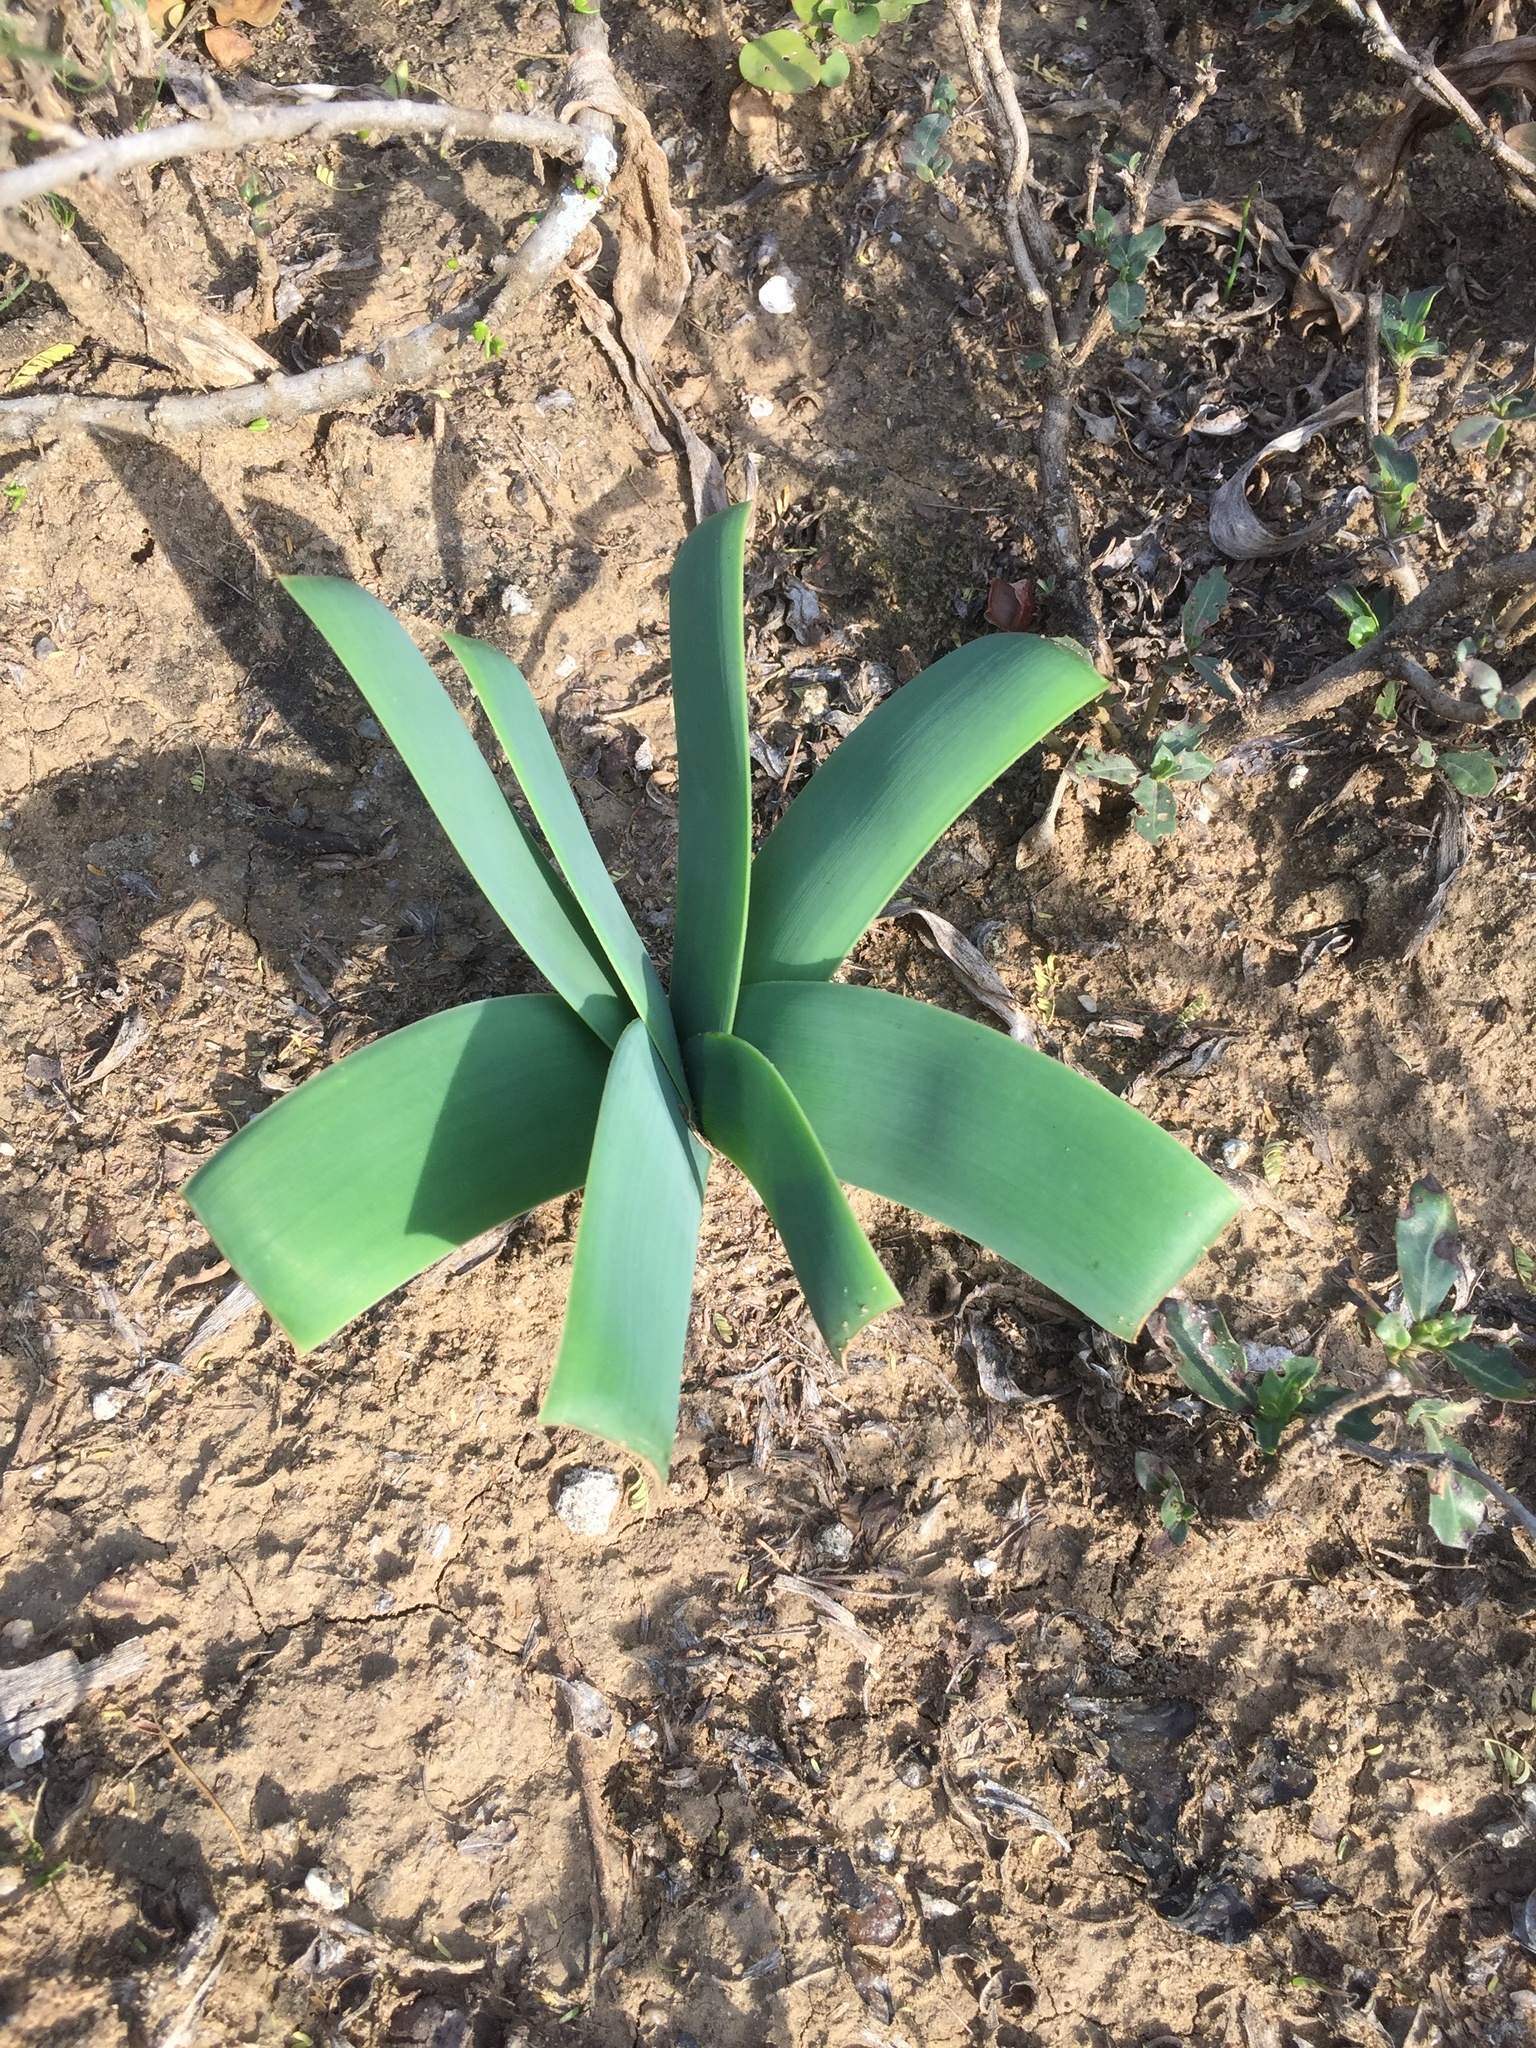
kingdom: Plantae
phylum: Tracheophyta
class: Liliopsida
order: Asparagales
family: Amaryllidaceae
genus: Ammocharis
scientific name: Ammocharis coranica
